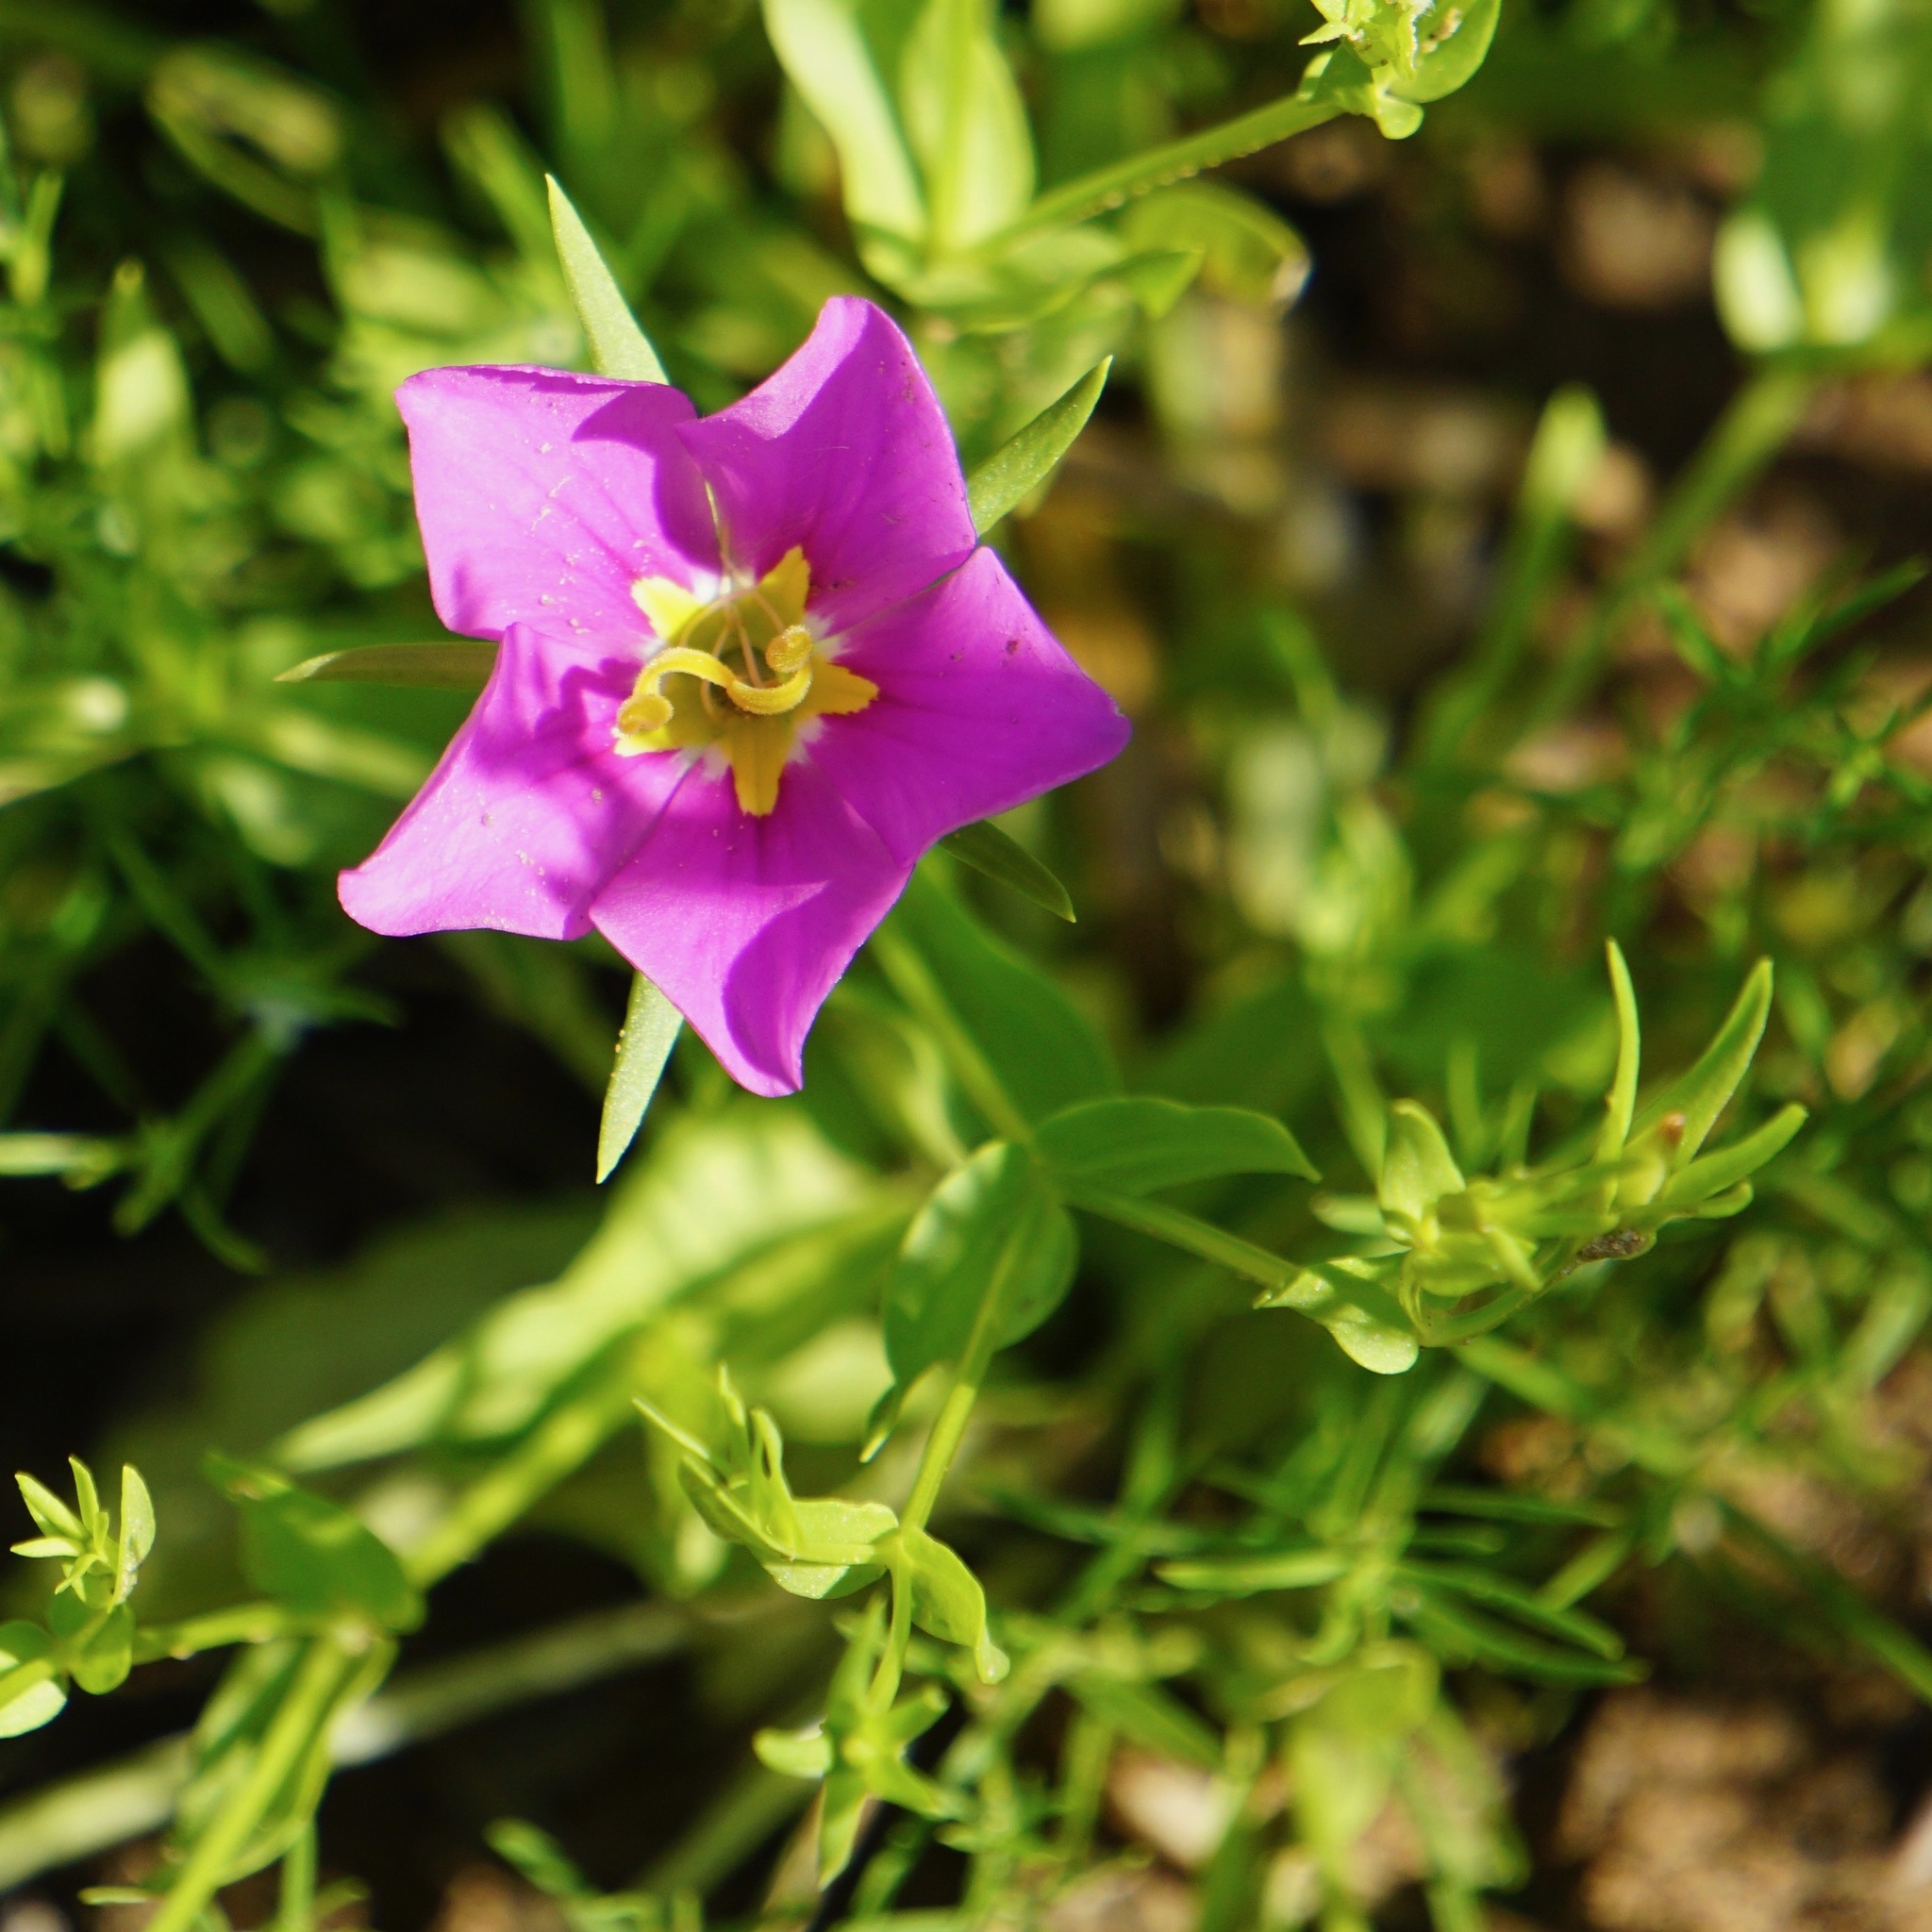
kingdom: Plantae
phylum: Tracheophyta
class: Magnoliopsida
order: Gentianales
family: Gentianaceae
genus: Sabatia
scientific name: Sabatia campestris
